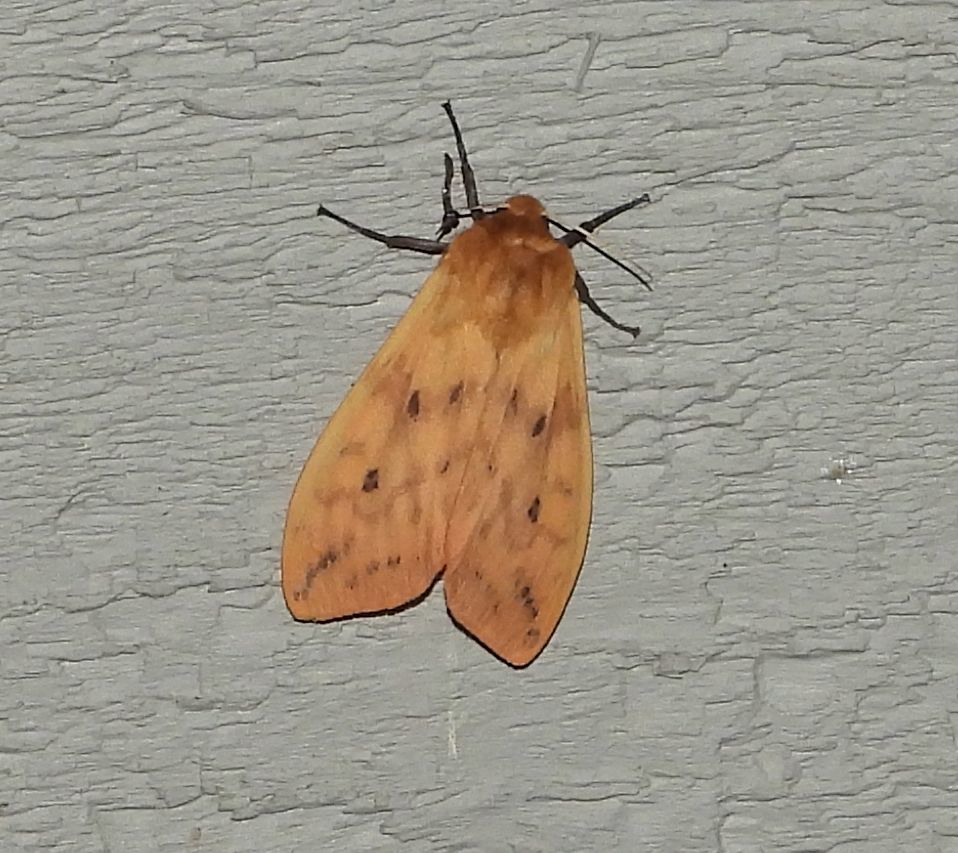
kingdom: Animalia
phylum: Arthropoda
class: Insecta
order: Lepidoptera
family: Erebidae
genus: Pyrrharctia
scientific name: Pyrrharctia isabella
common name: Isabella tiger moth
